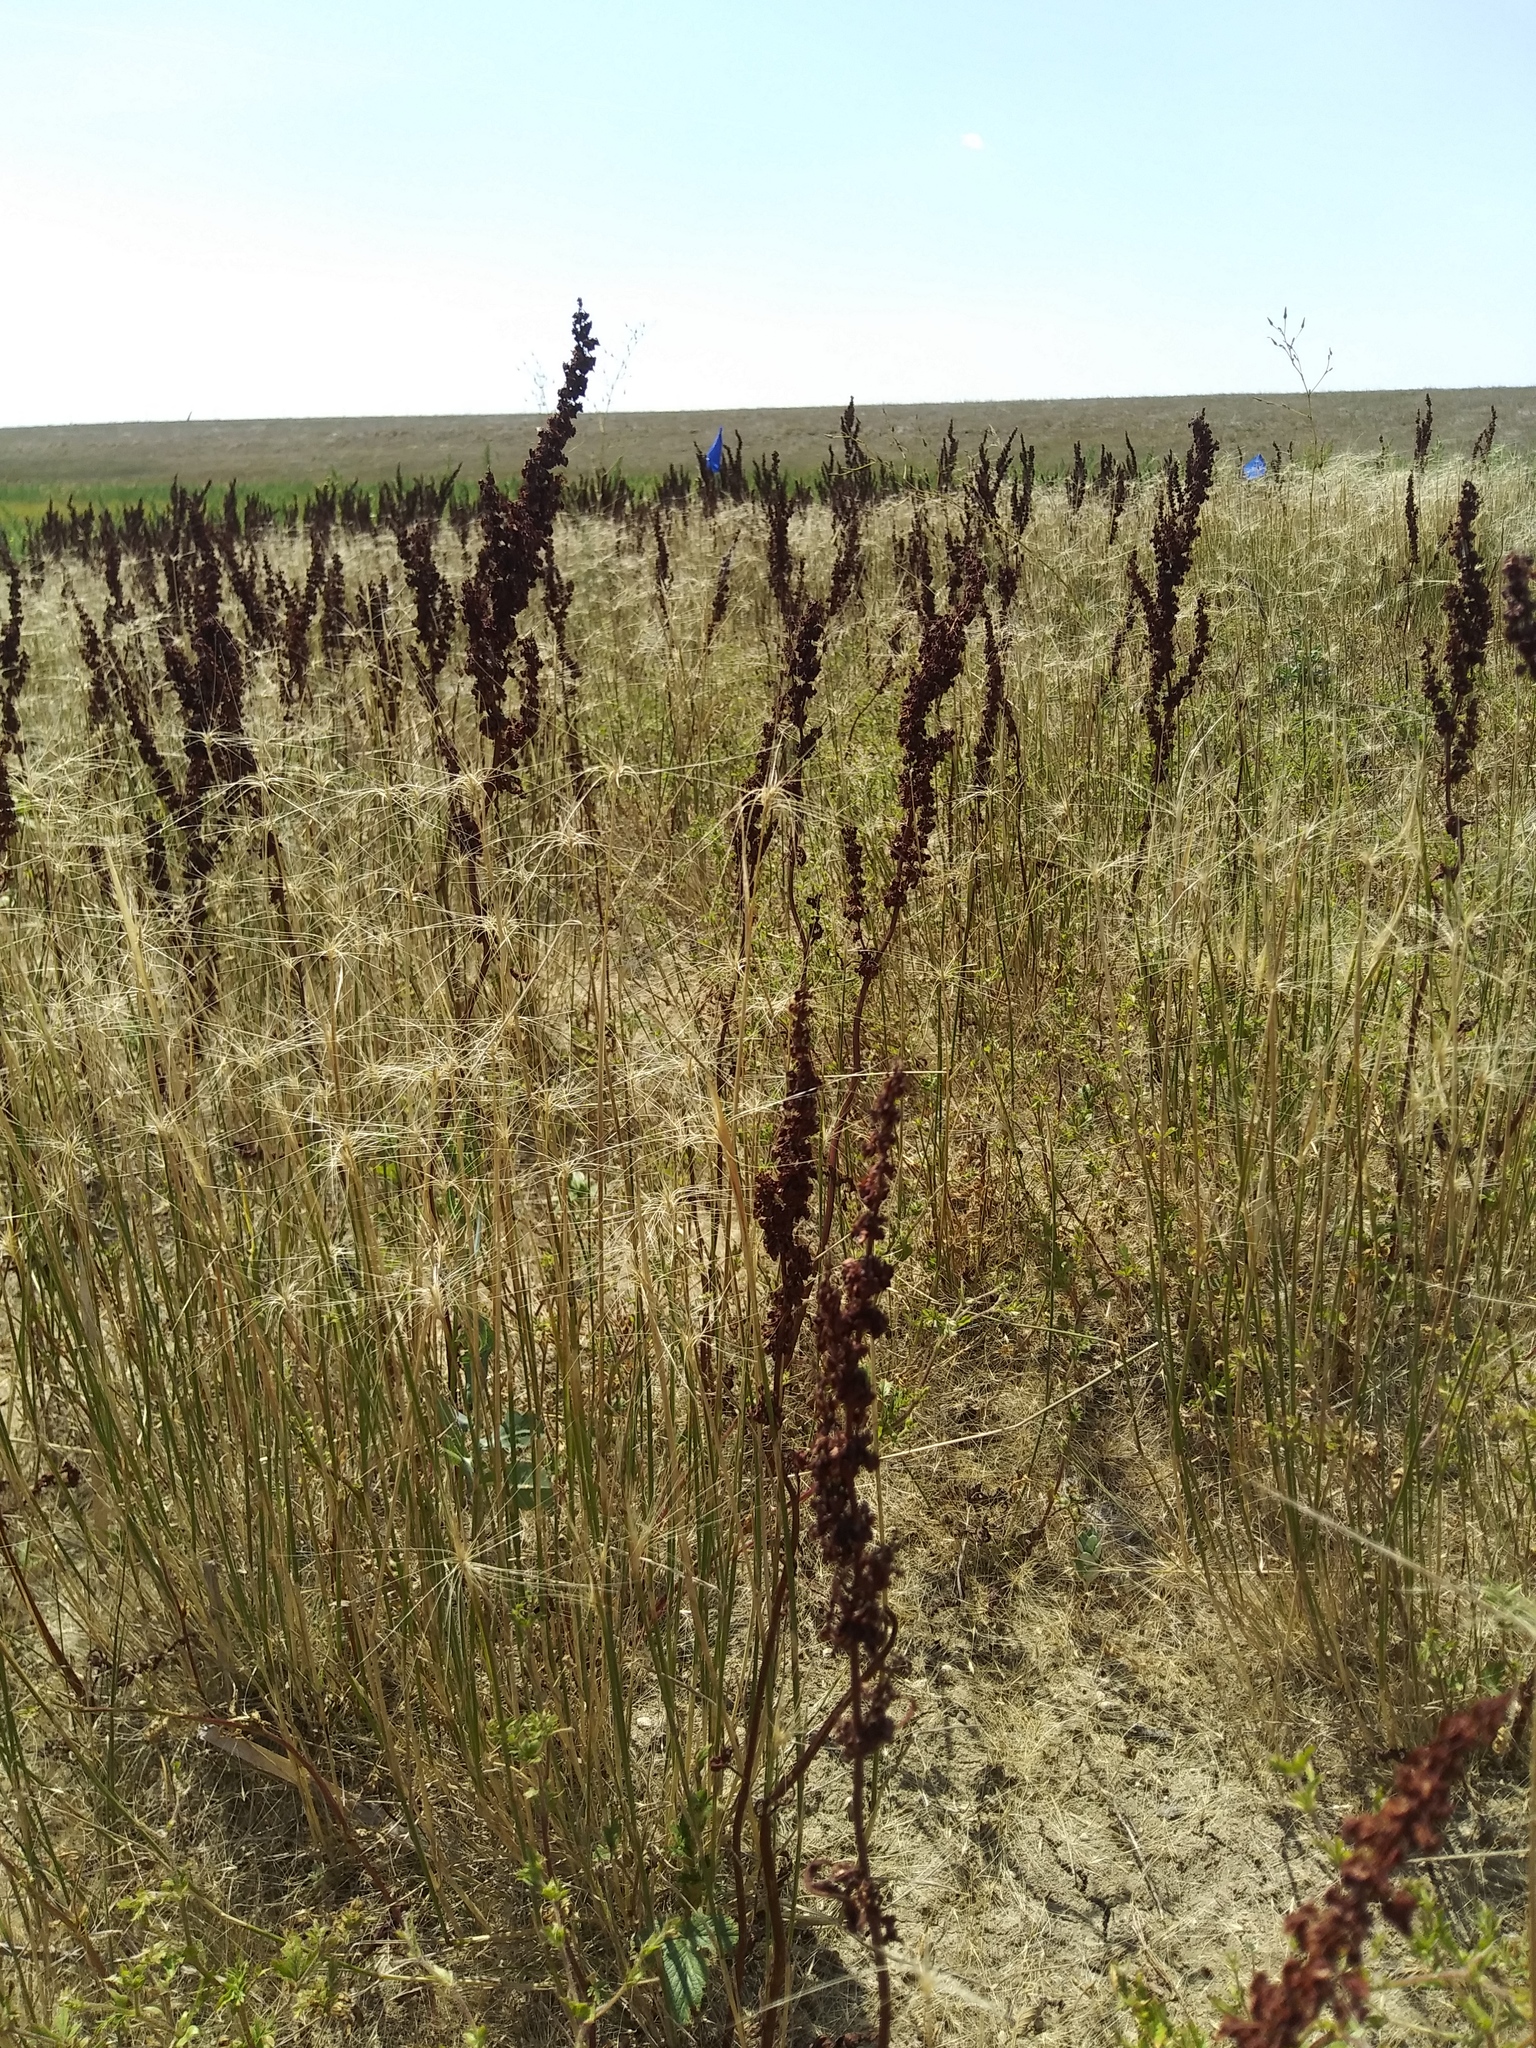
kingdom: Plantae
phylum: Tracheophyta
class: Magnoliopsida
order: Caryophyllales
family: Polygonaceae
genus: Rumex
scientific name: Rumex stenophyllus
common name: Narrowleaf dock
